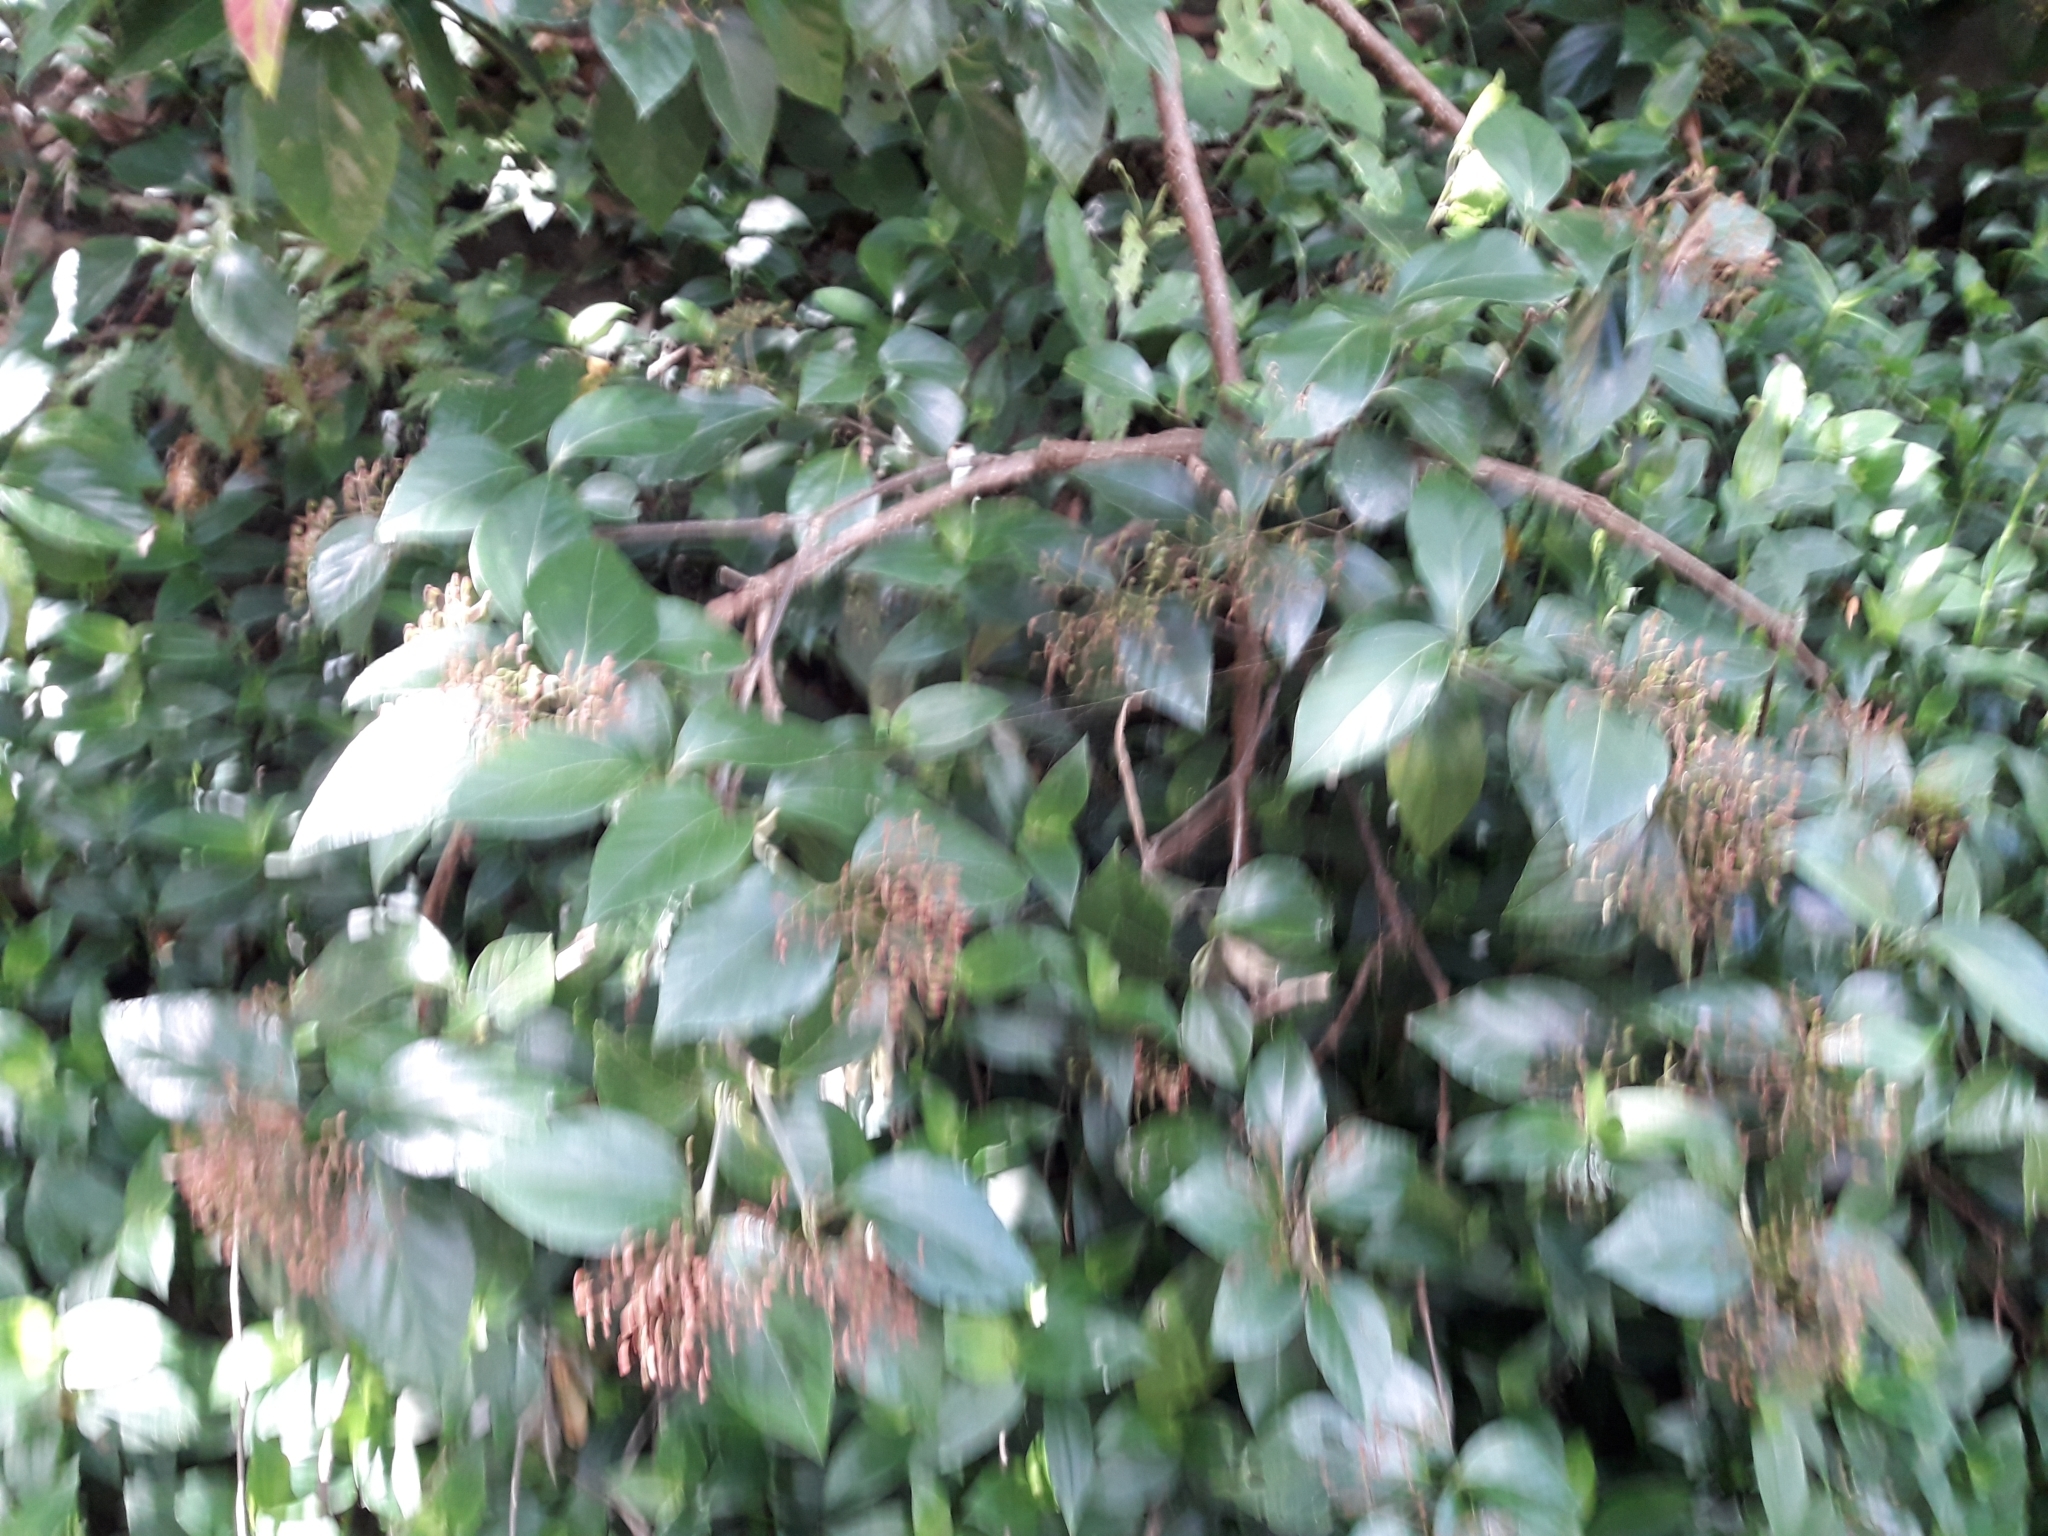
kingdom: Plantae
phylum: Tracheophyta
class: Magnoliopsida
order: Dipsacales
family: Viburnaceae
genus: Viburnum
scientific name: Viburnum tinus
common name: Laurustinus
